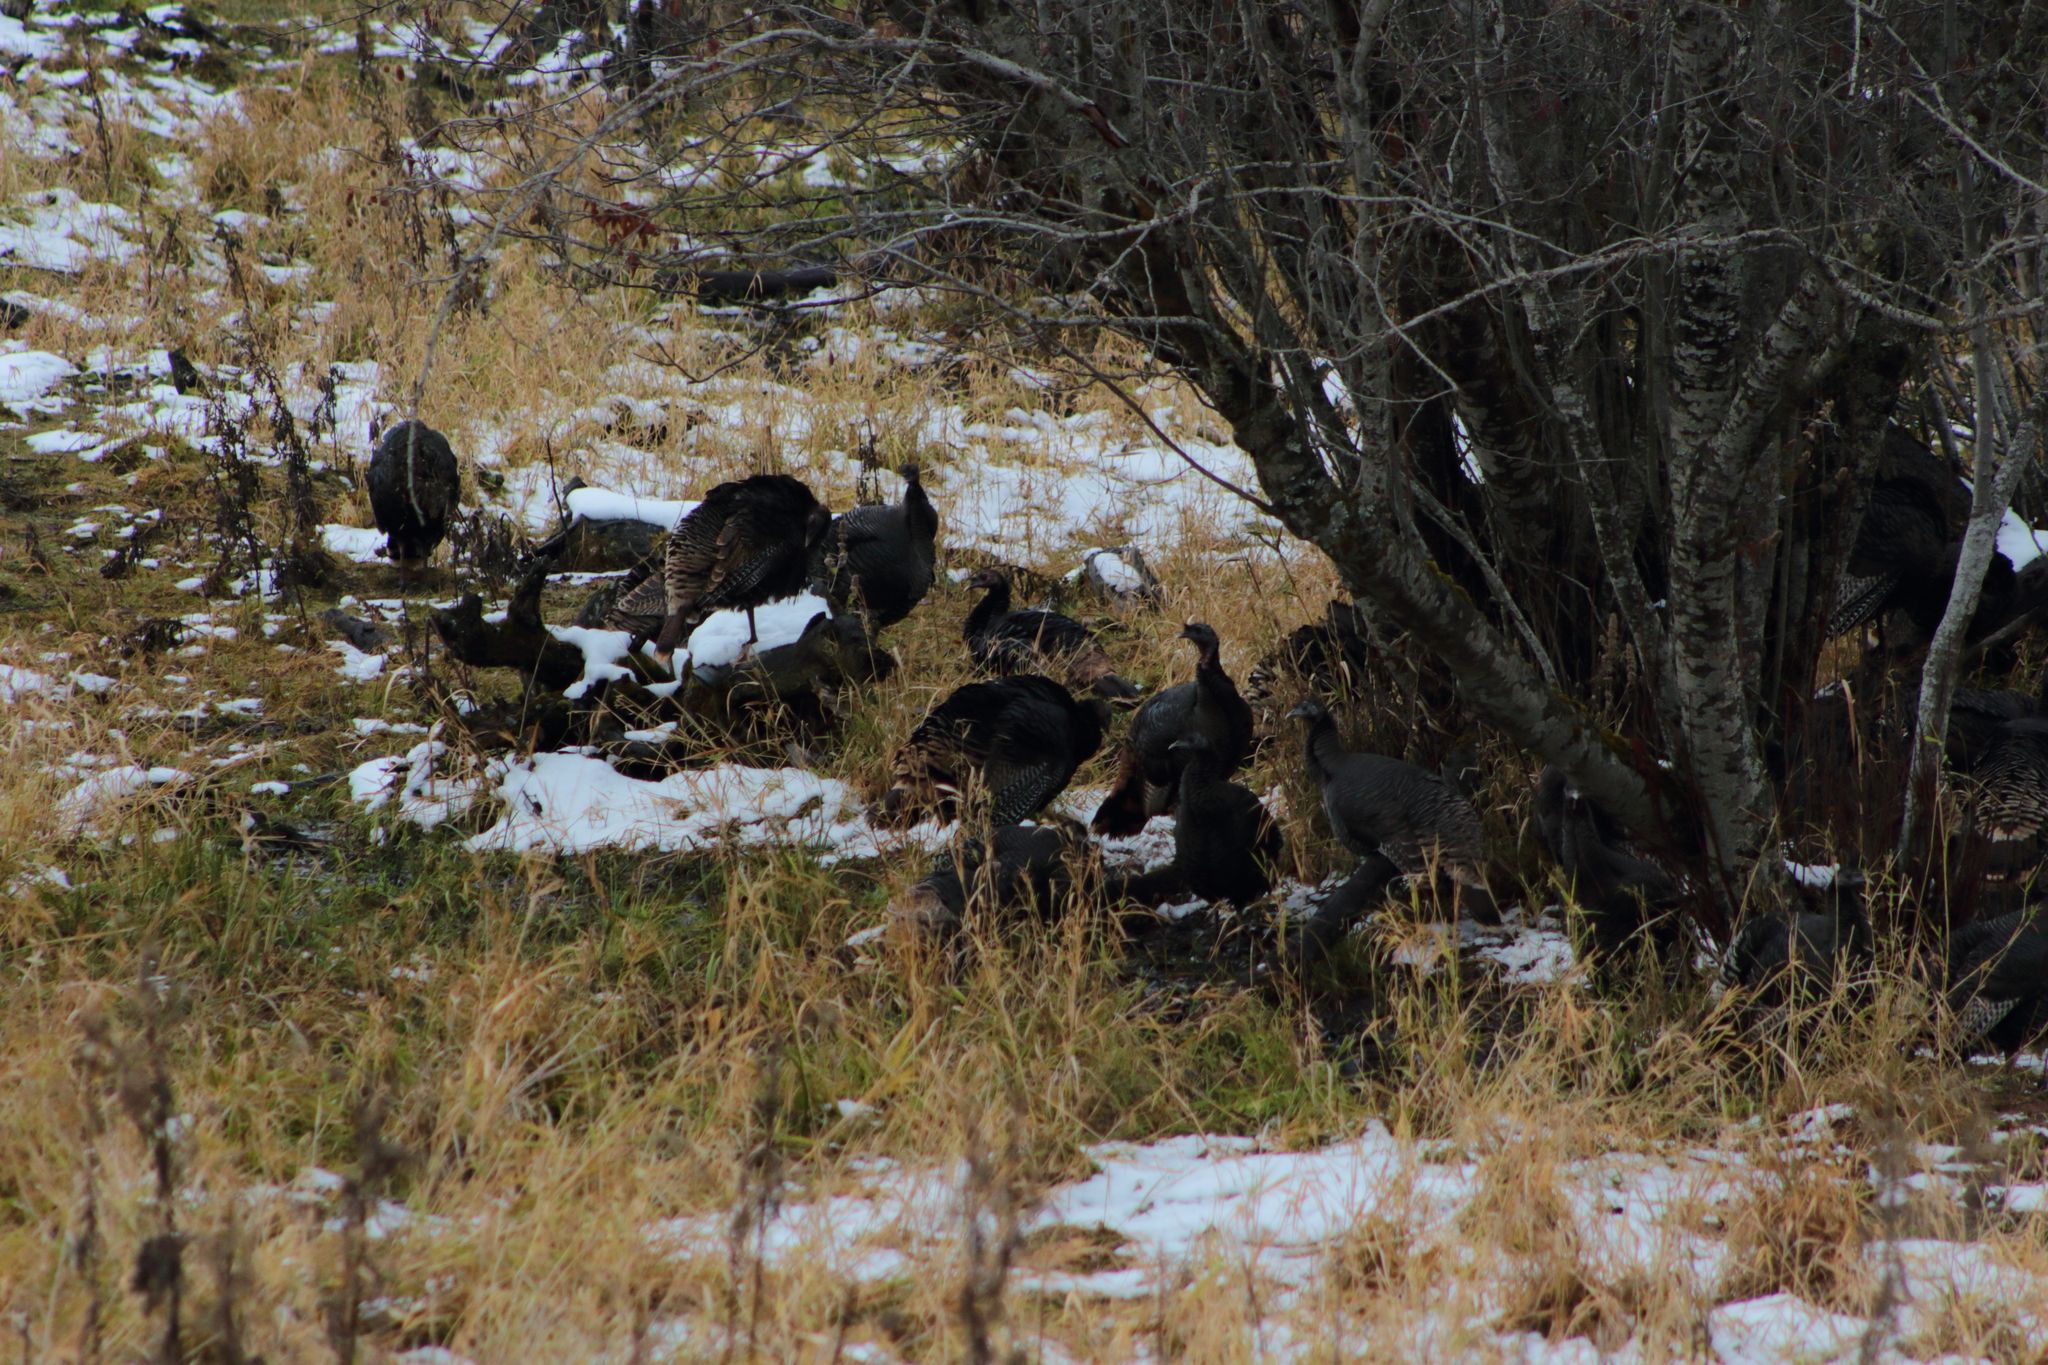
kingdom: Animalia
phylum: Chordata
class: Aves
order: Galliformes
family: Phasianidae
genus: Meleagris
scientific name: Meleagris gallopavo
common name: Wild turkey
